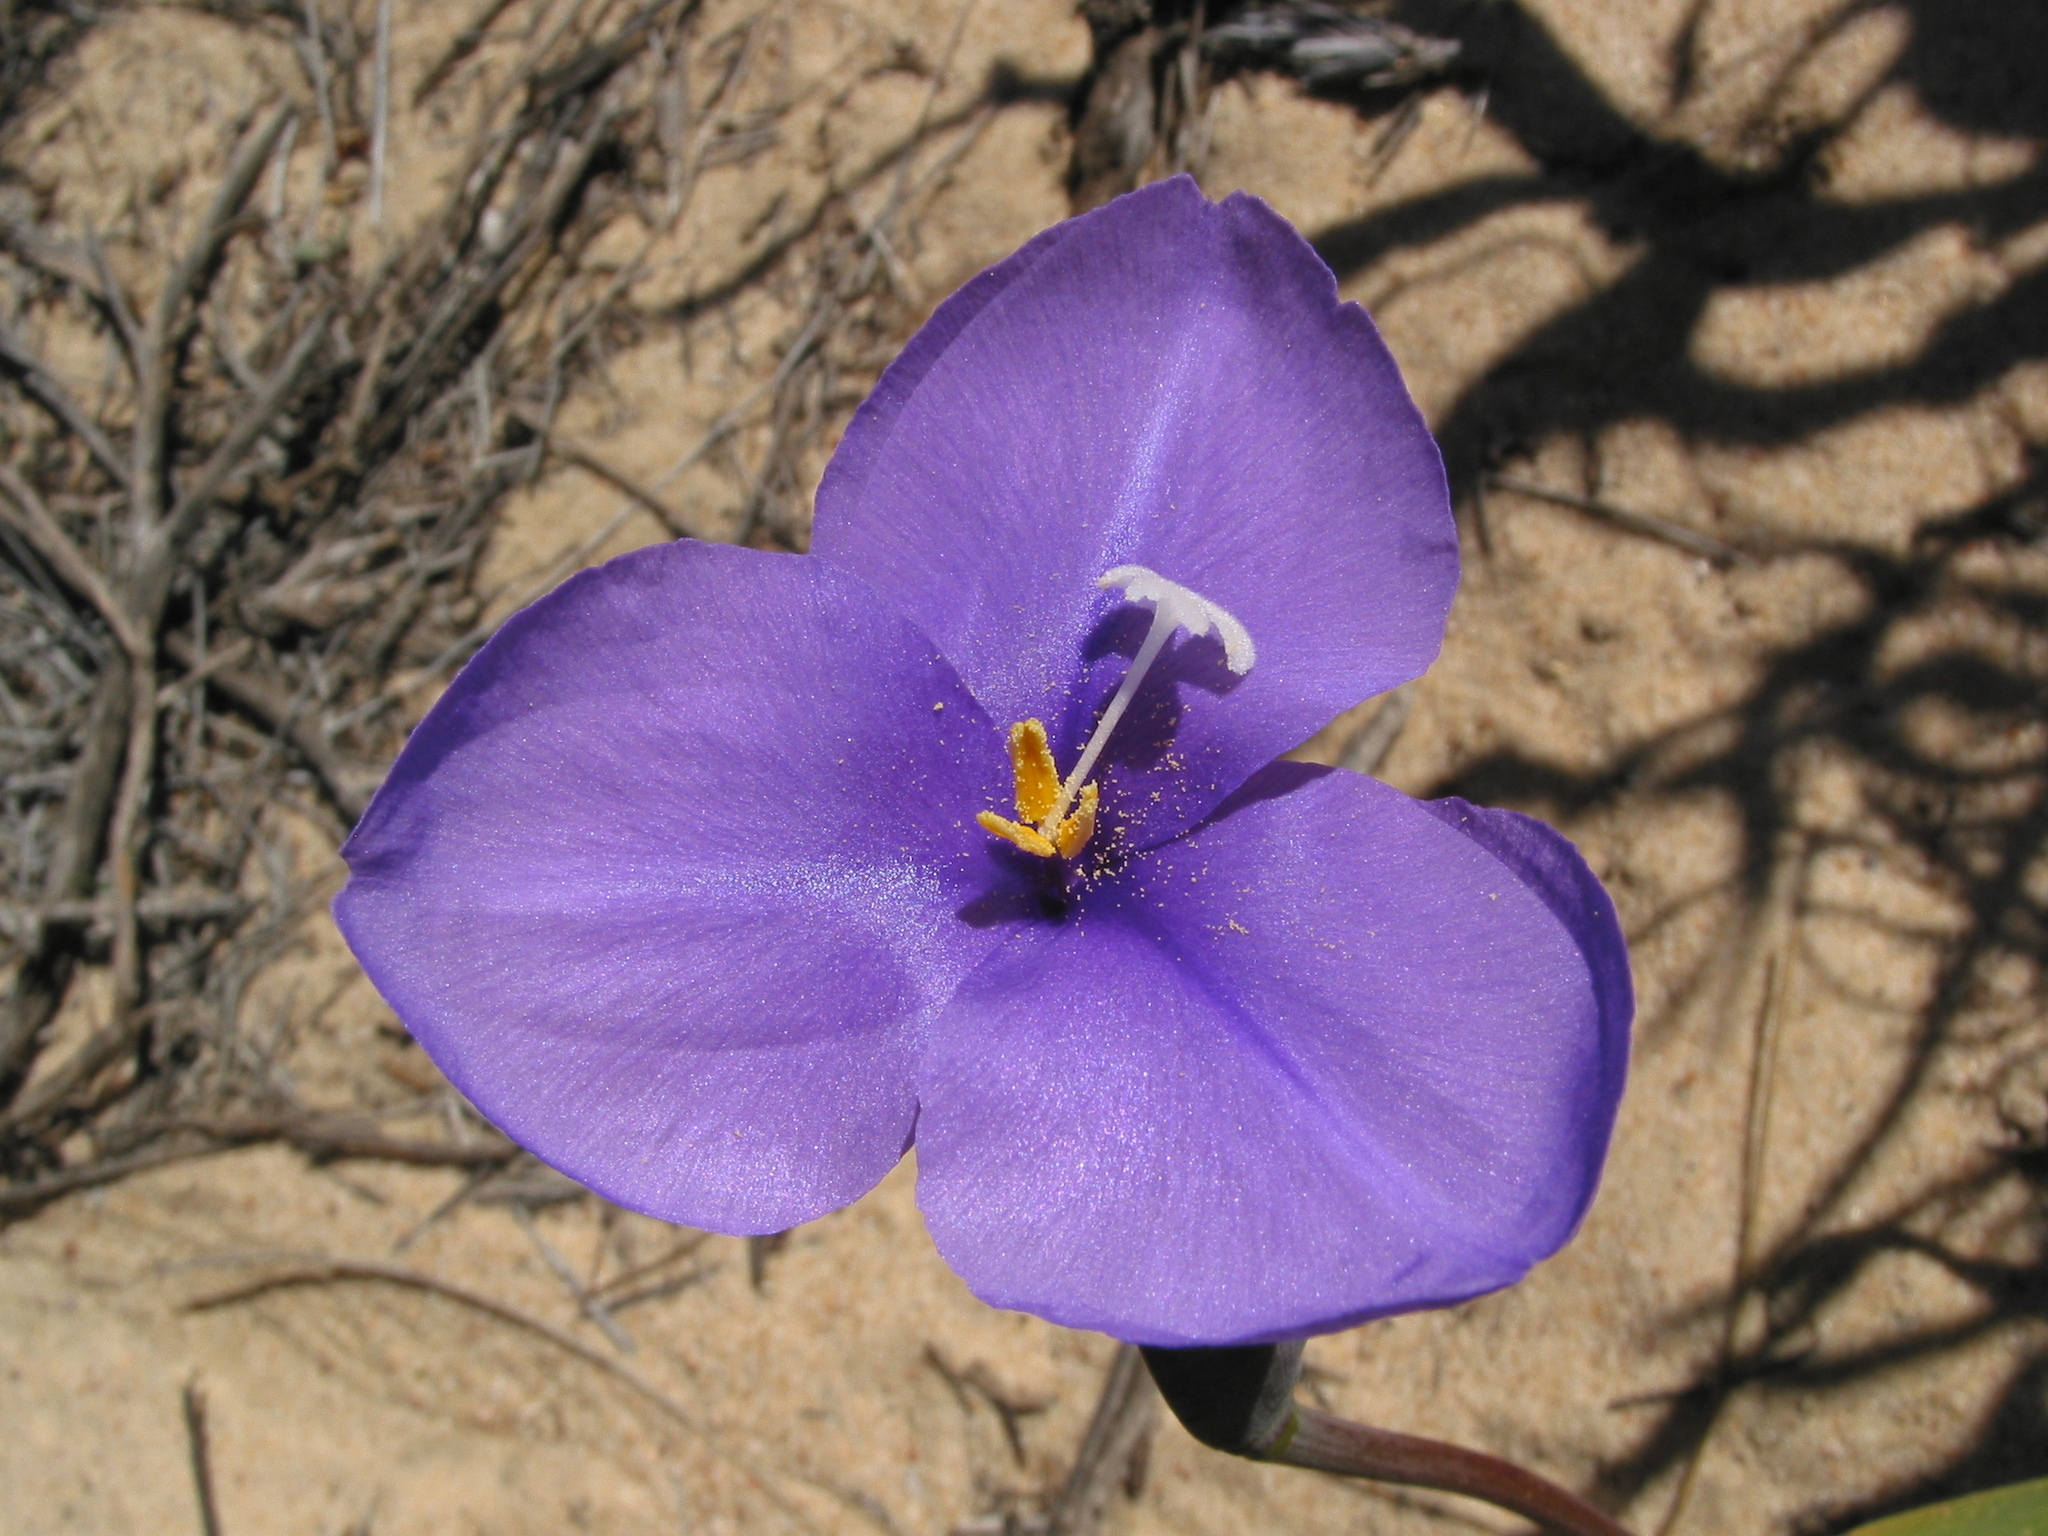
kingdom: Plantae
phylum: Tracheophyta
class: Liliopsida
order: Asparagales
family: Iridaceae
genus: Patersonia
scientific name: Patersonia occidentalis
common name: Long purple-flag
